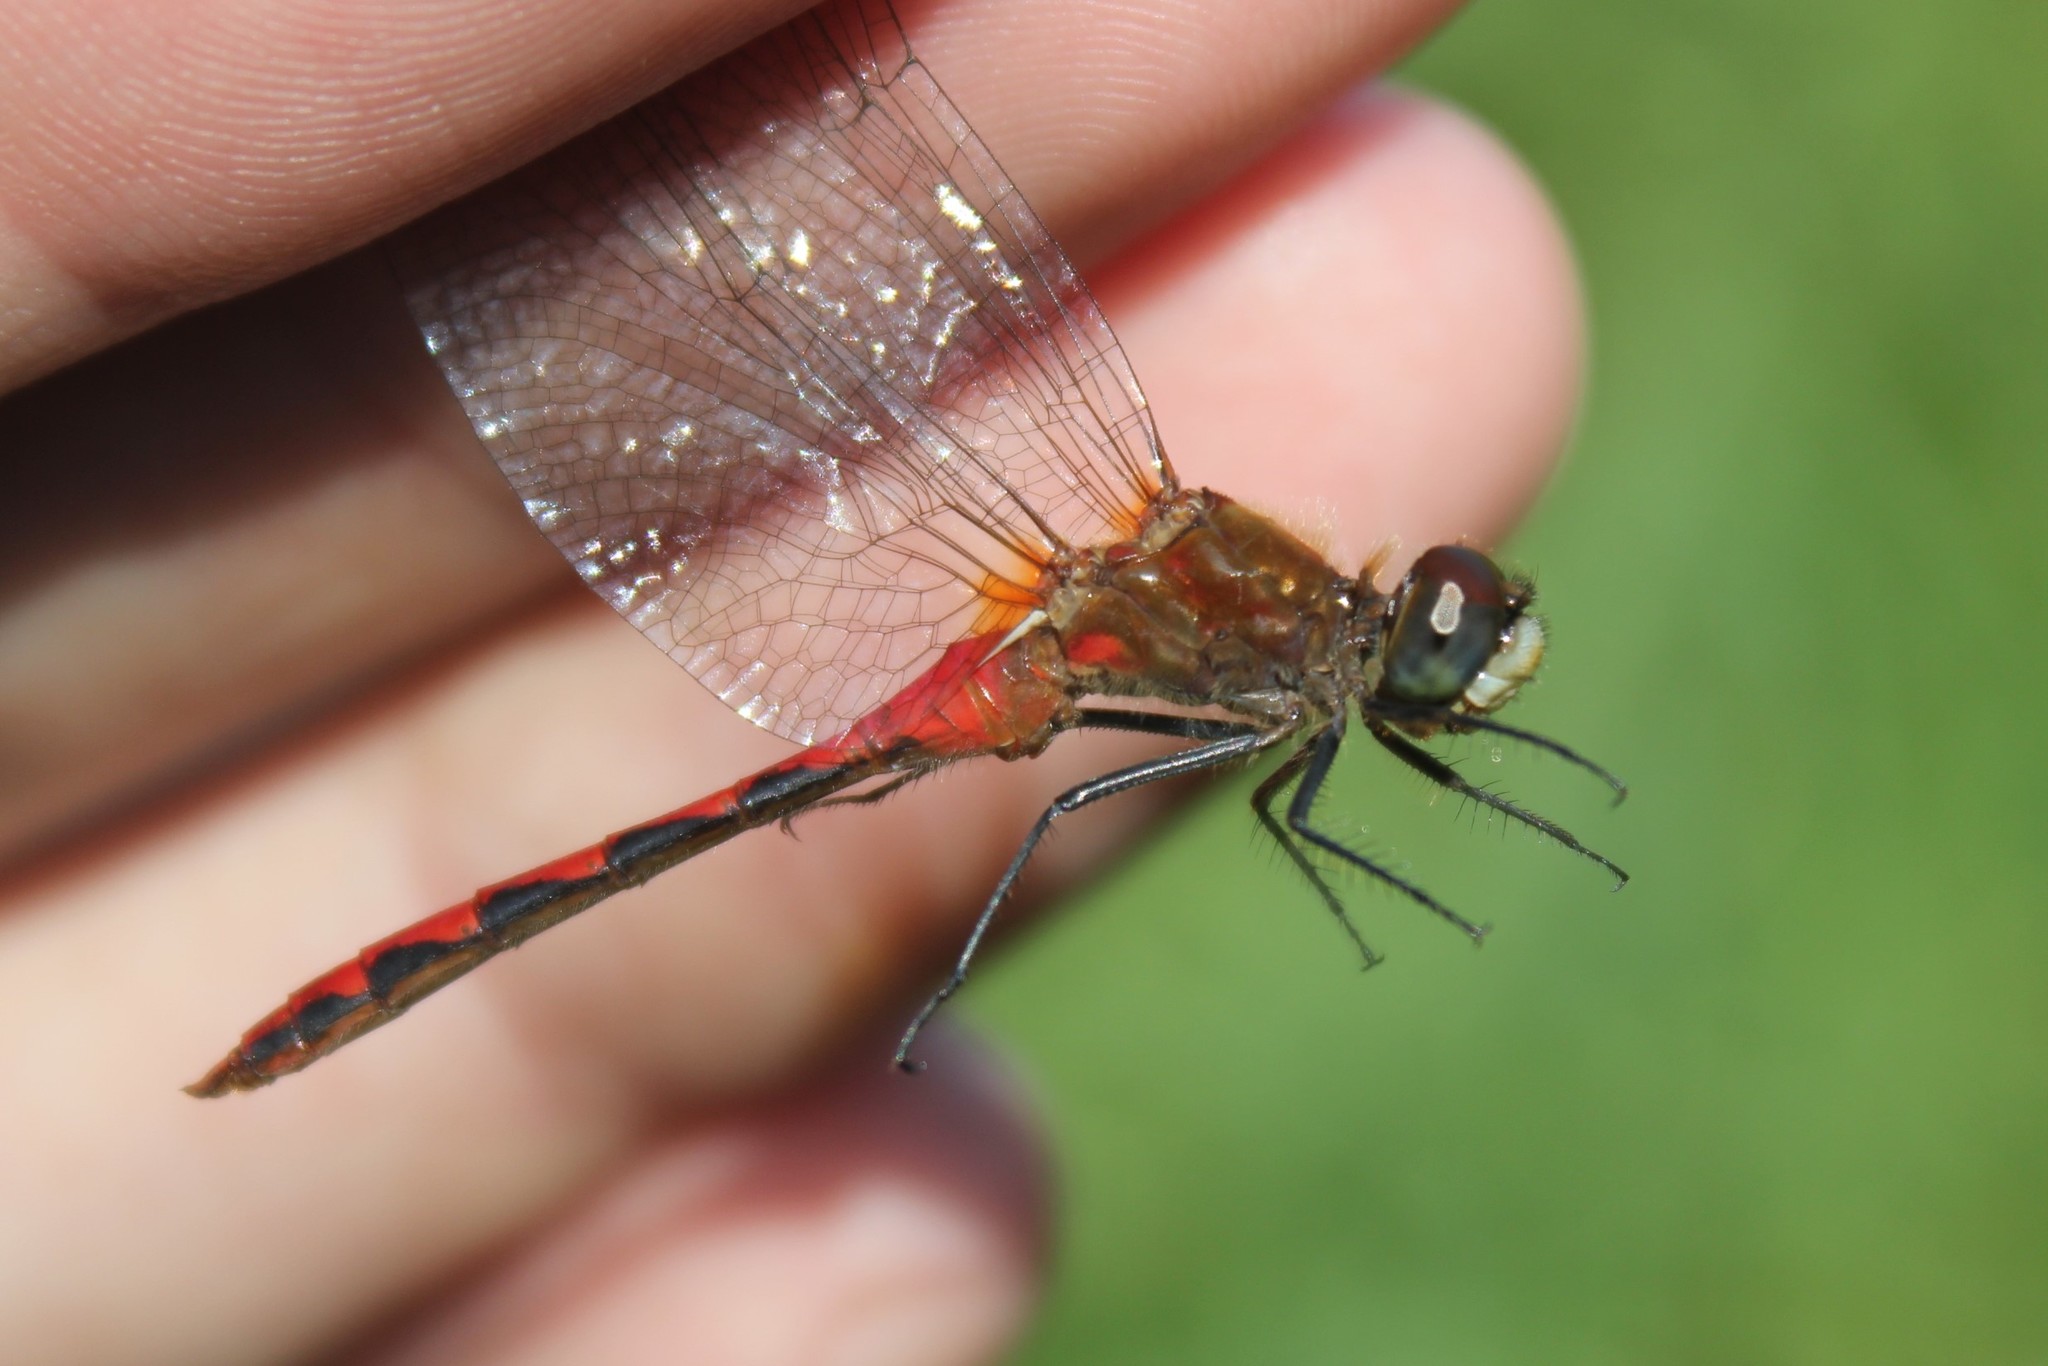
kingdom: Animalia
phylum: Arthropoda
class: Insecta
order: Odonata
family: Libellulidae
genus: Sympetrum
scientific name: Sympetrum obtrusum
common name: White-faced meadowhawk
